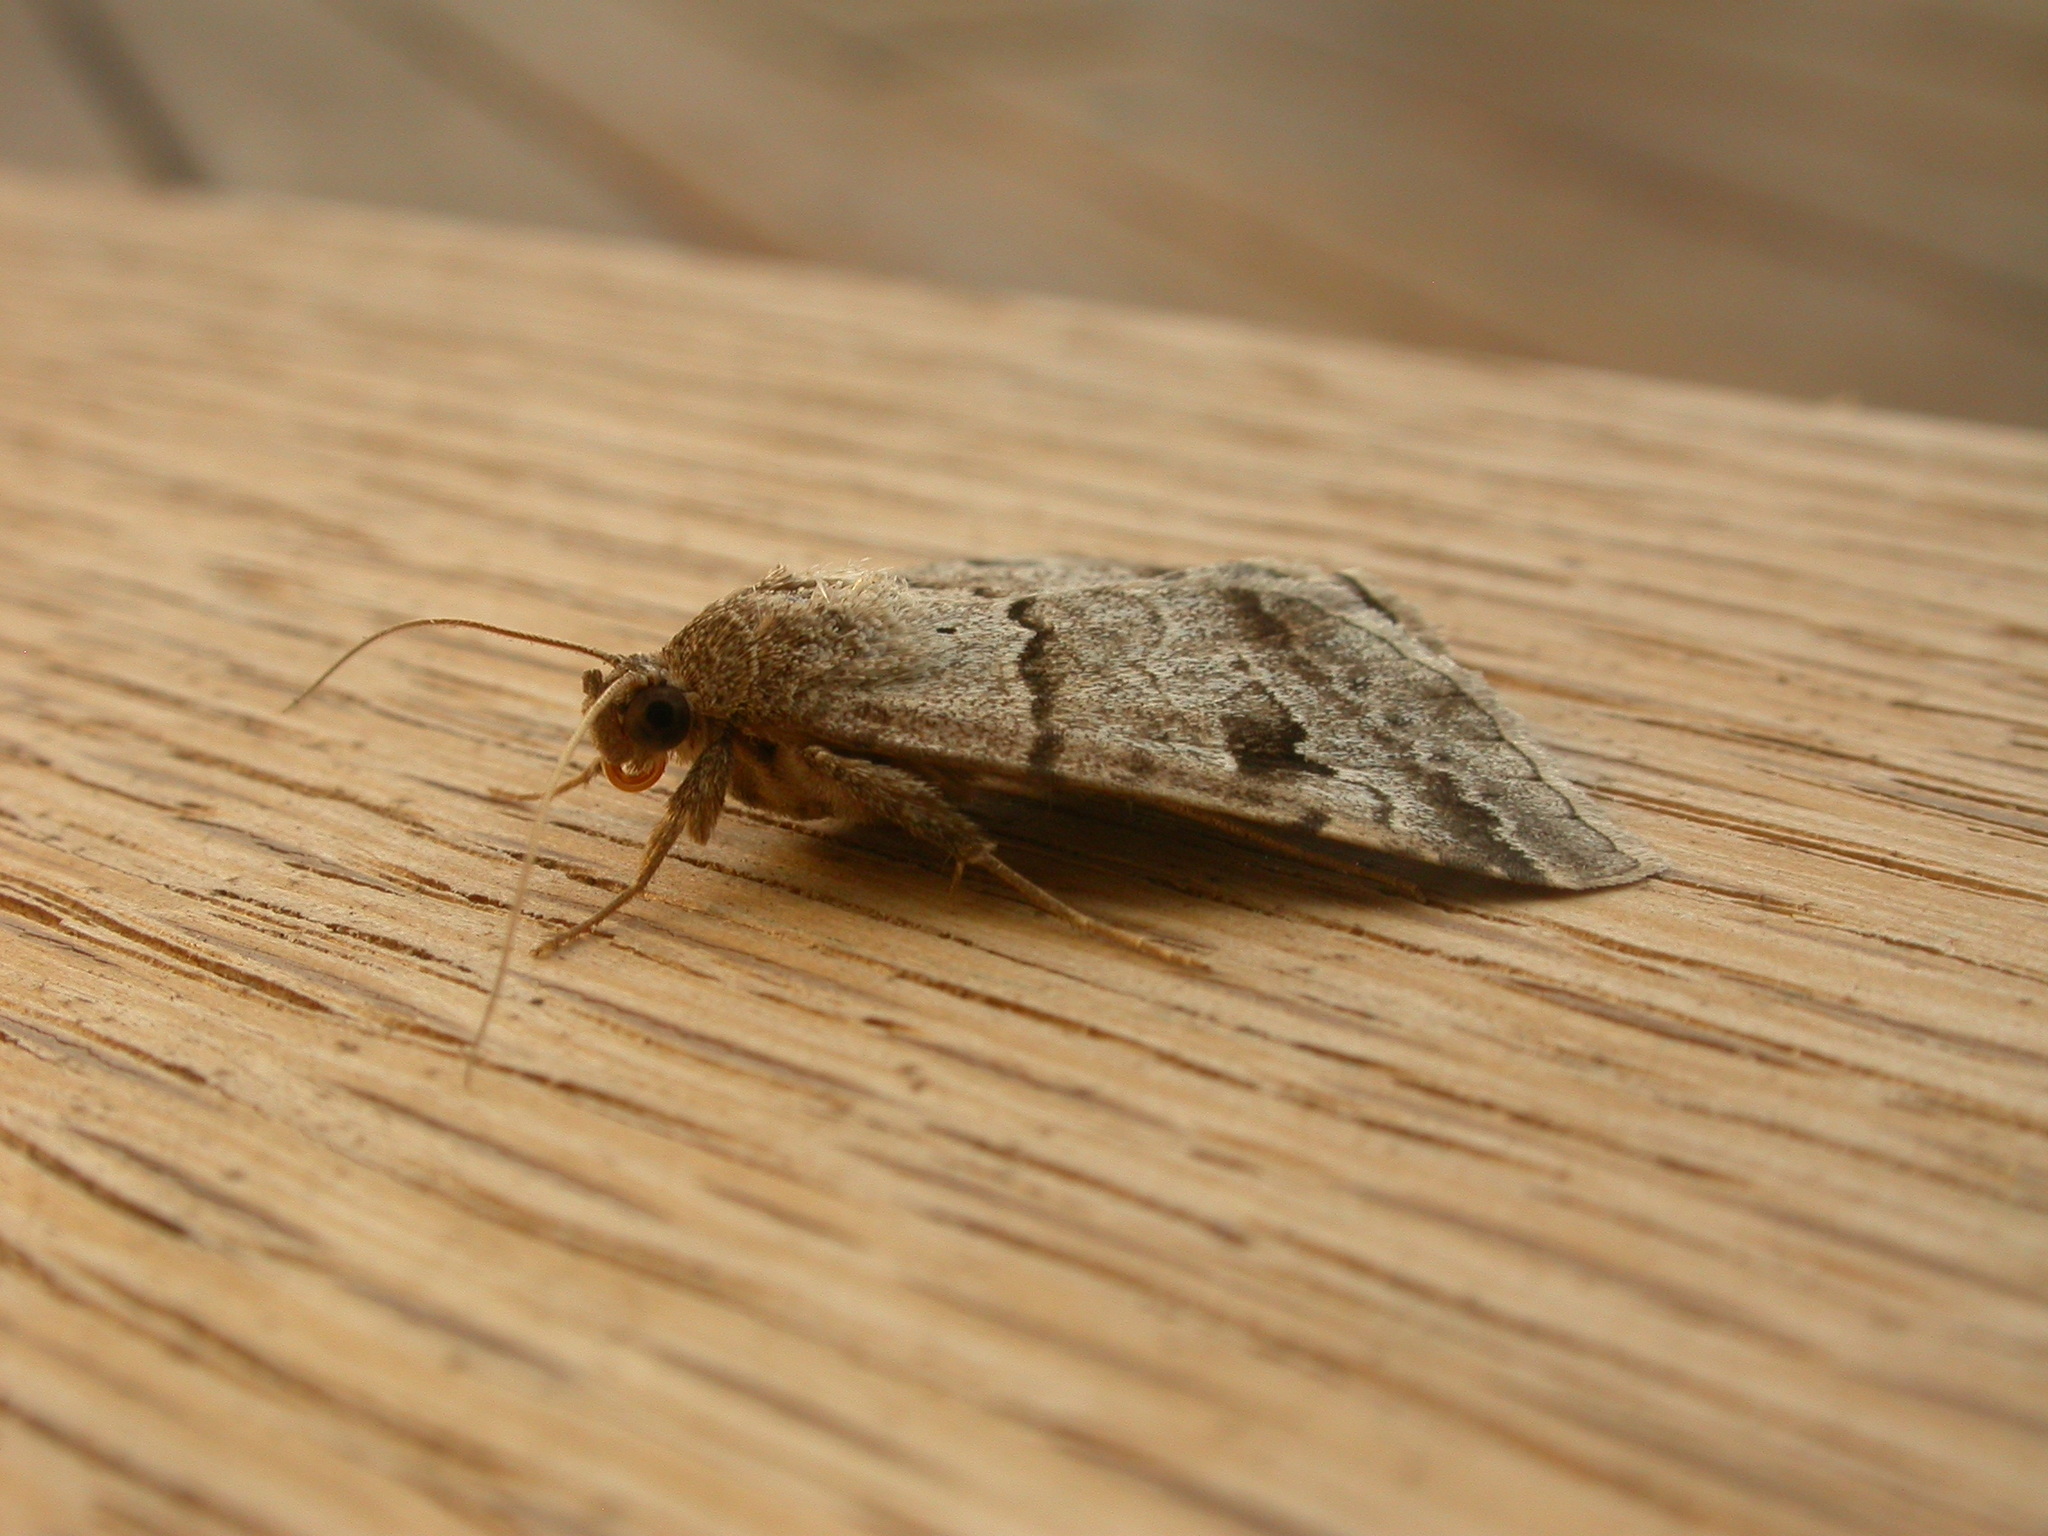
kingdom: Animalia
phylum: Arthropoda
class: Insecta
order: Lepidoptera
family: Erebidae
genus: Mocis
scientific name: Mocis alterna
